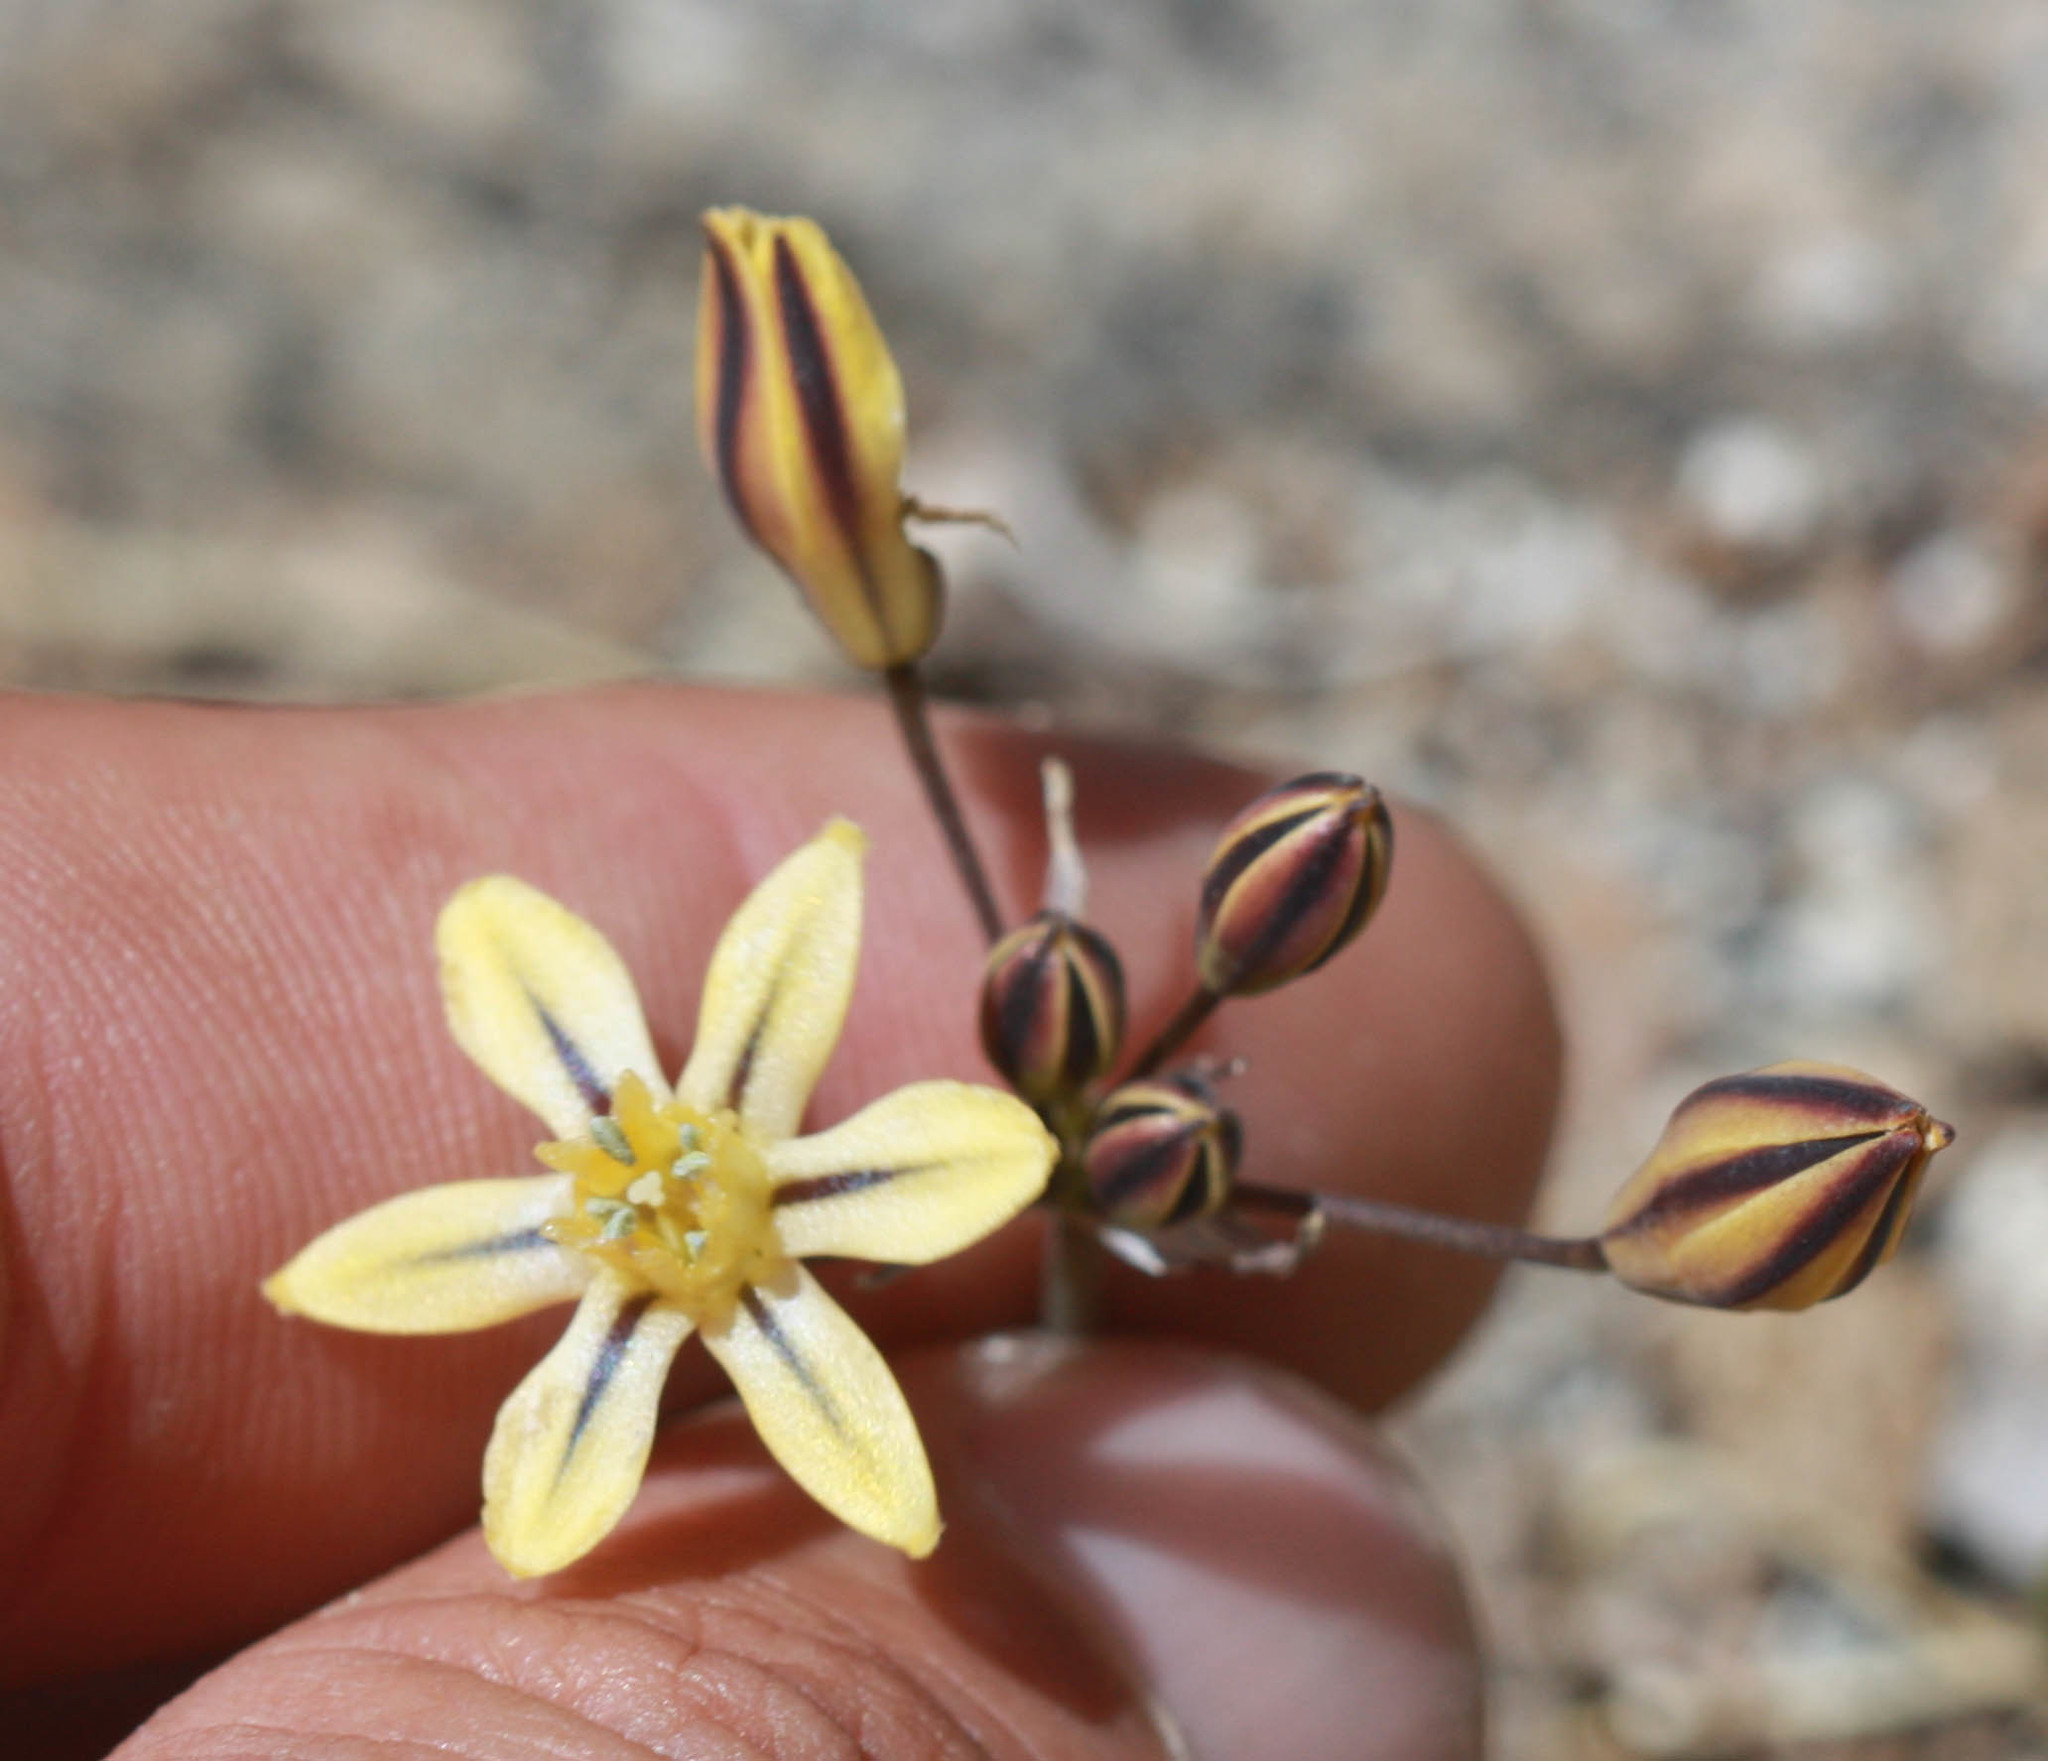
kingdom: Plantae
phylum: Tracheophyta
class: Liliopsida
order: Asparagales
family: Asparagaceae
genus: Triteleia
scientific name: Triteleia ixioides
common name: Yellow-brodiaea
